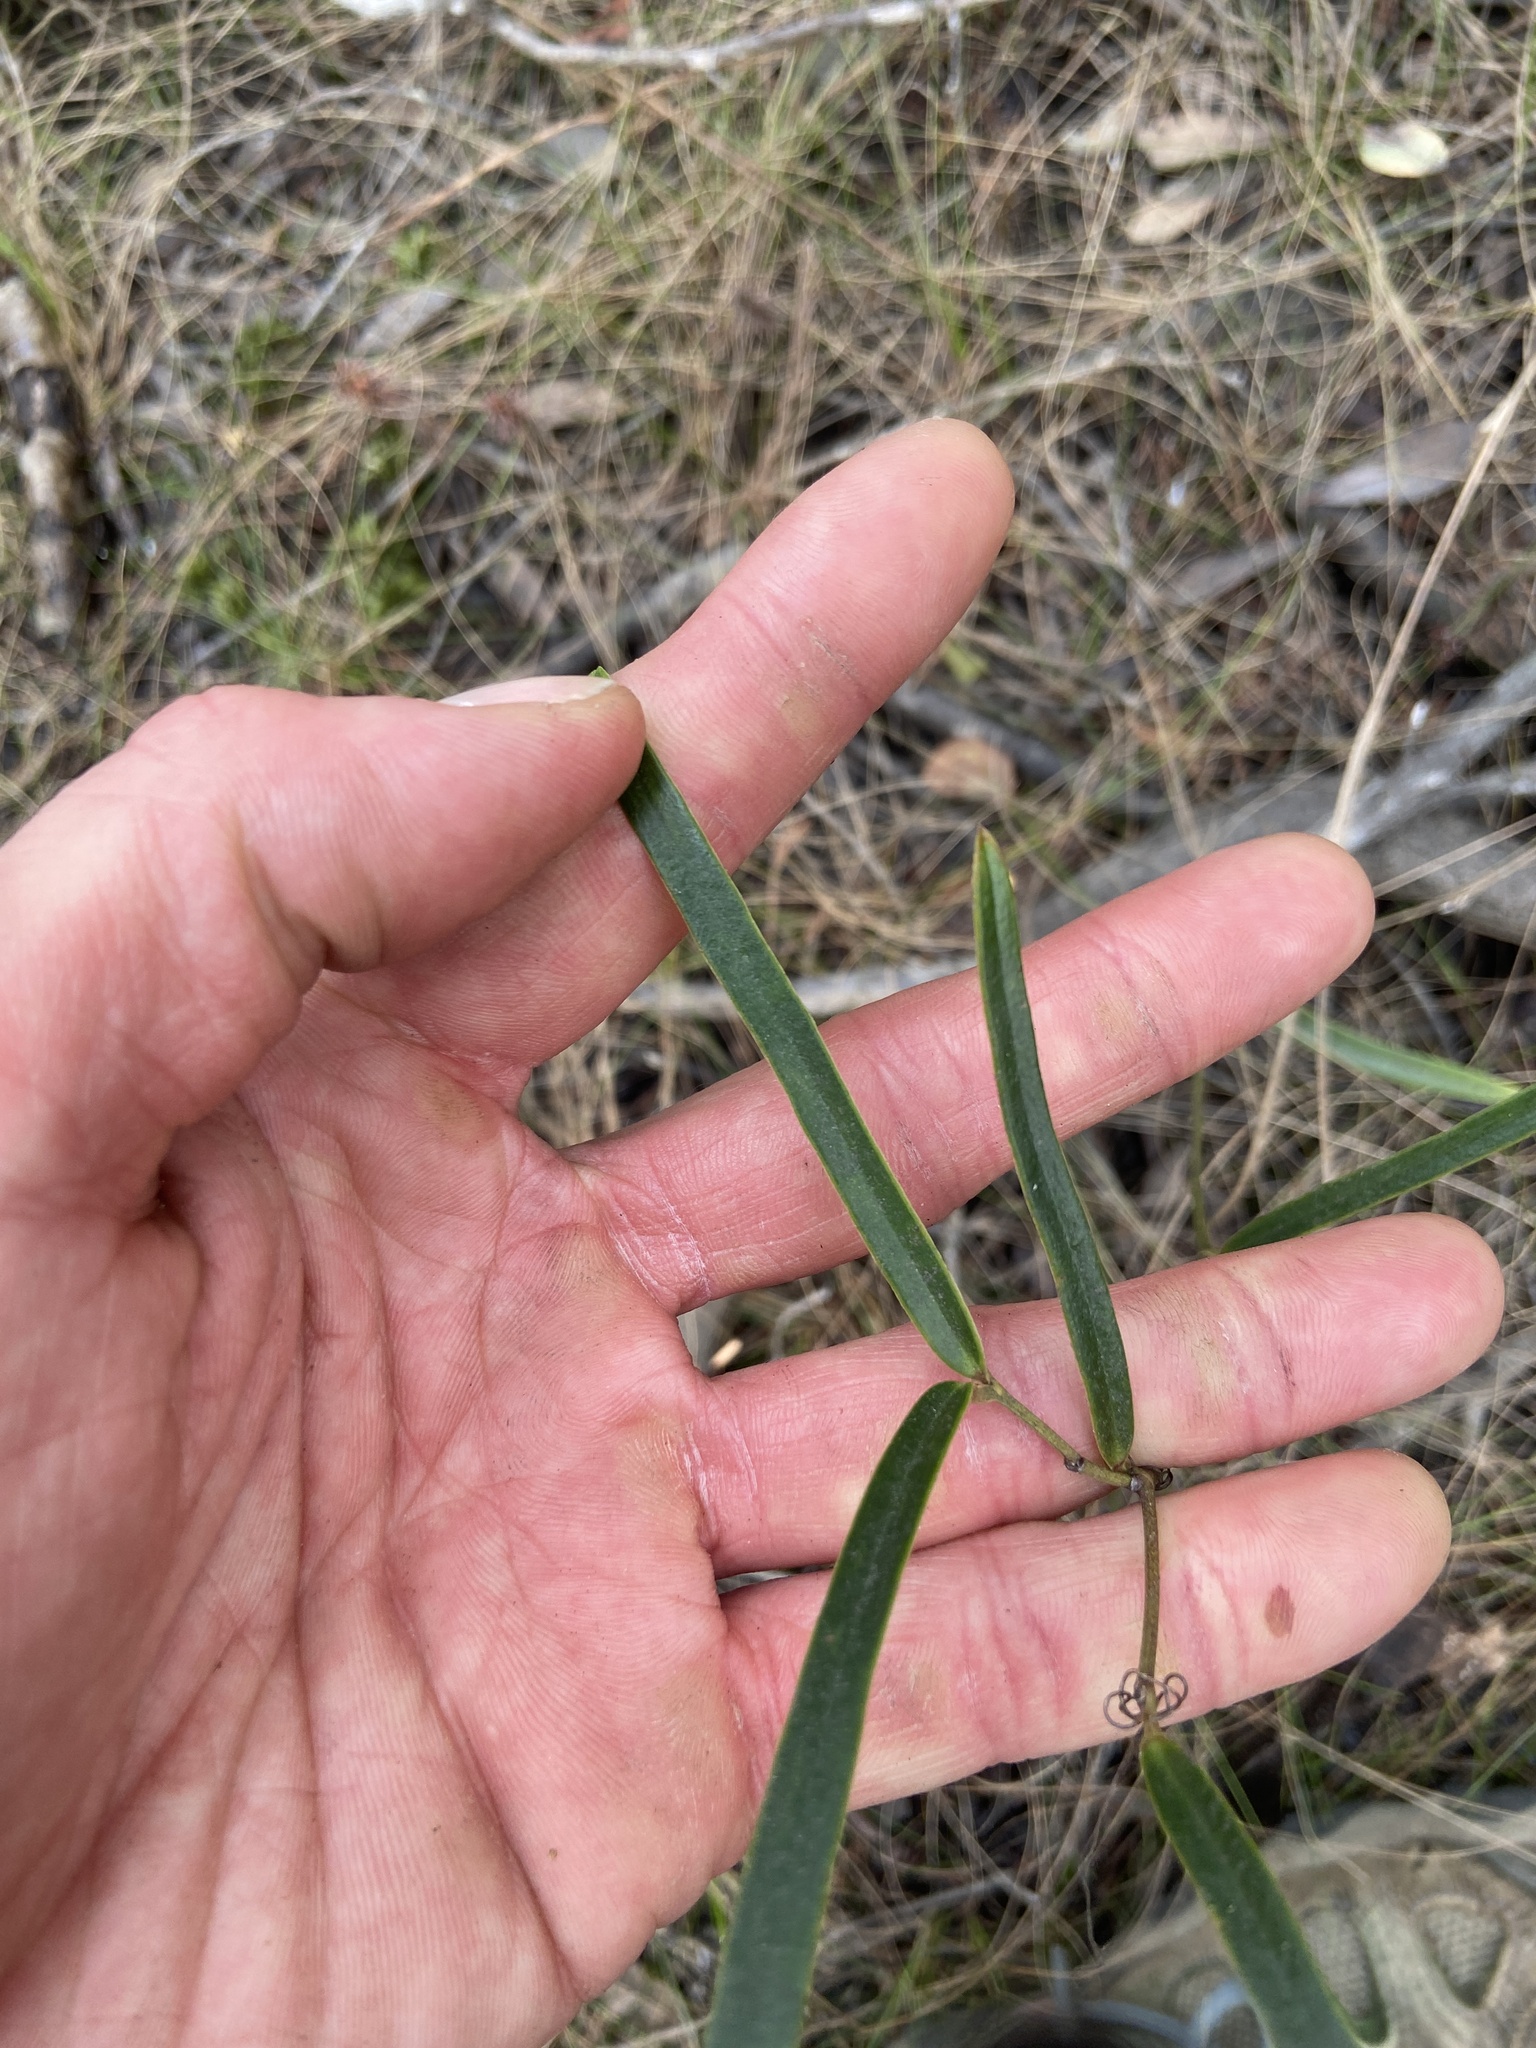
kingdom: Plantae
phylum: Tracheophyta
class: Liliopsida
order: Liliales
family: Smilacaceae
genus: Smilax
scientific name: Smilax laurifolia
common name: Bamboovine
